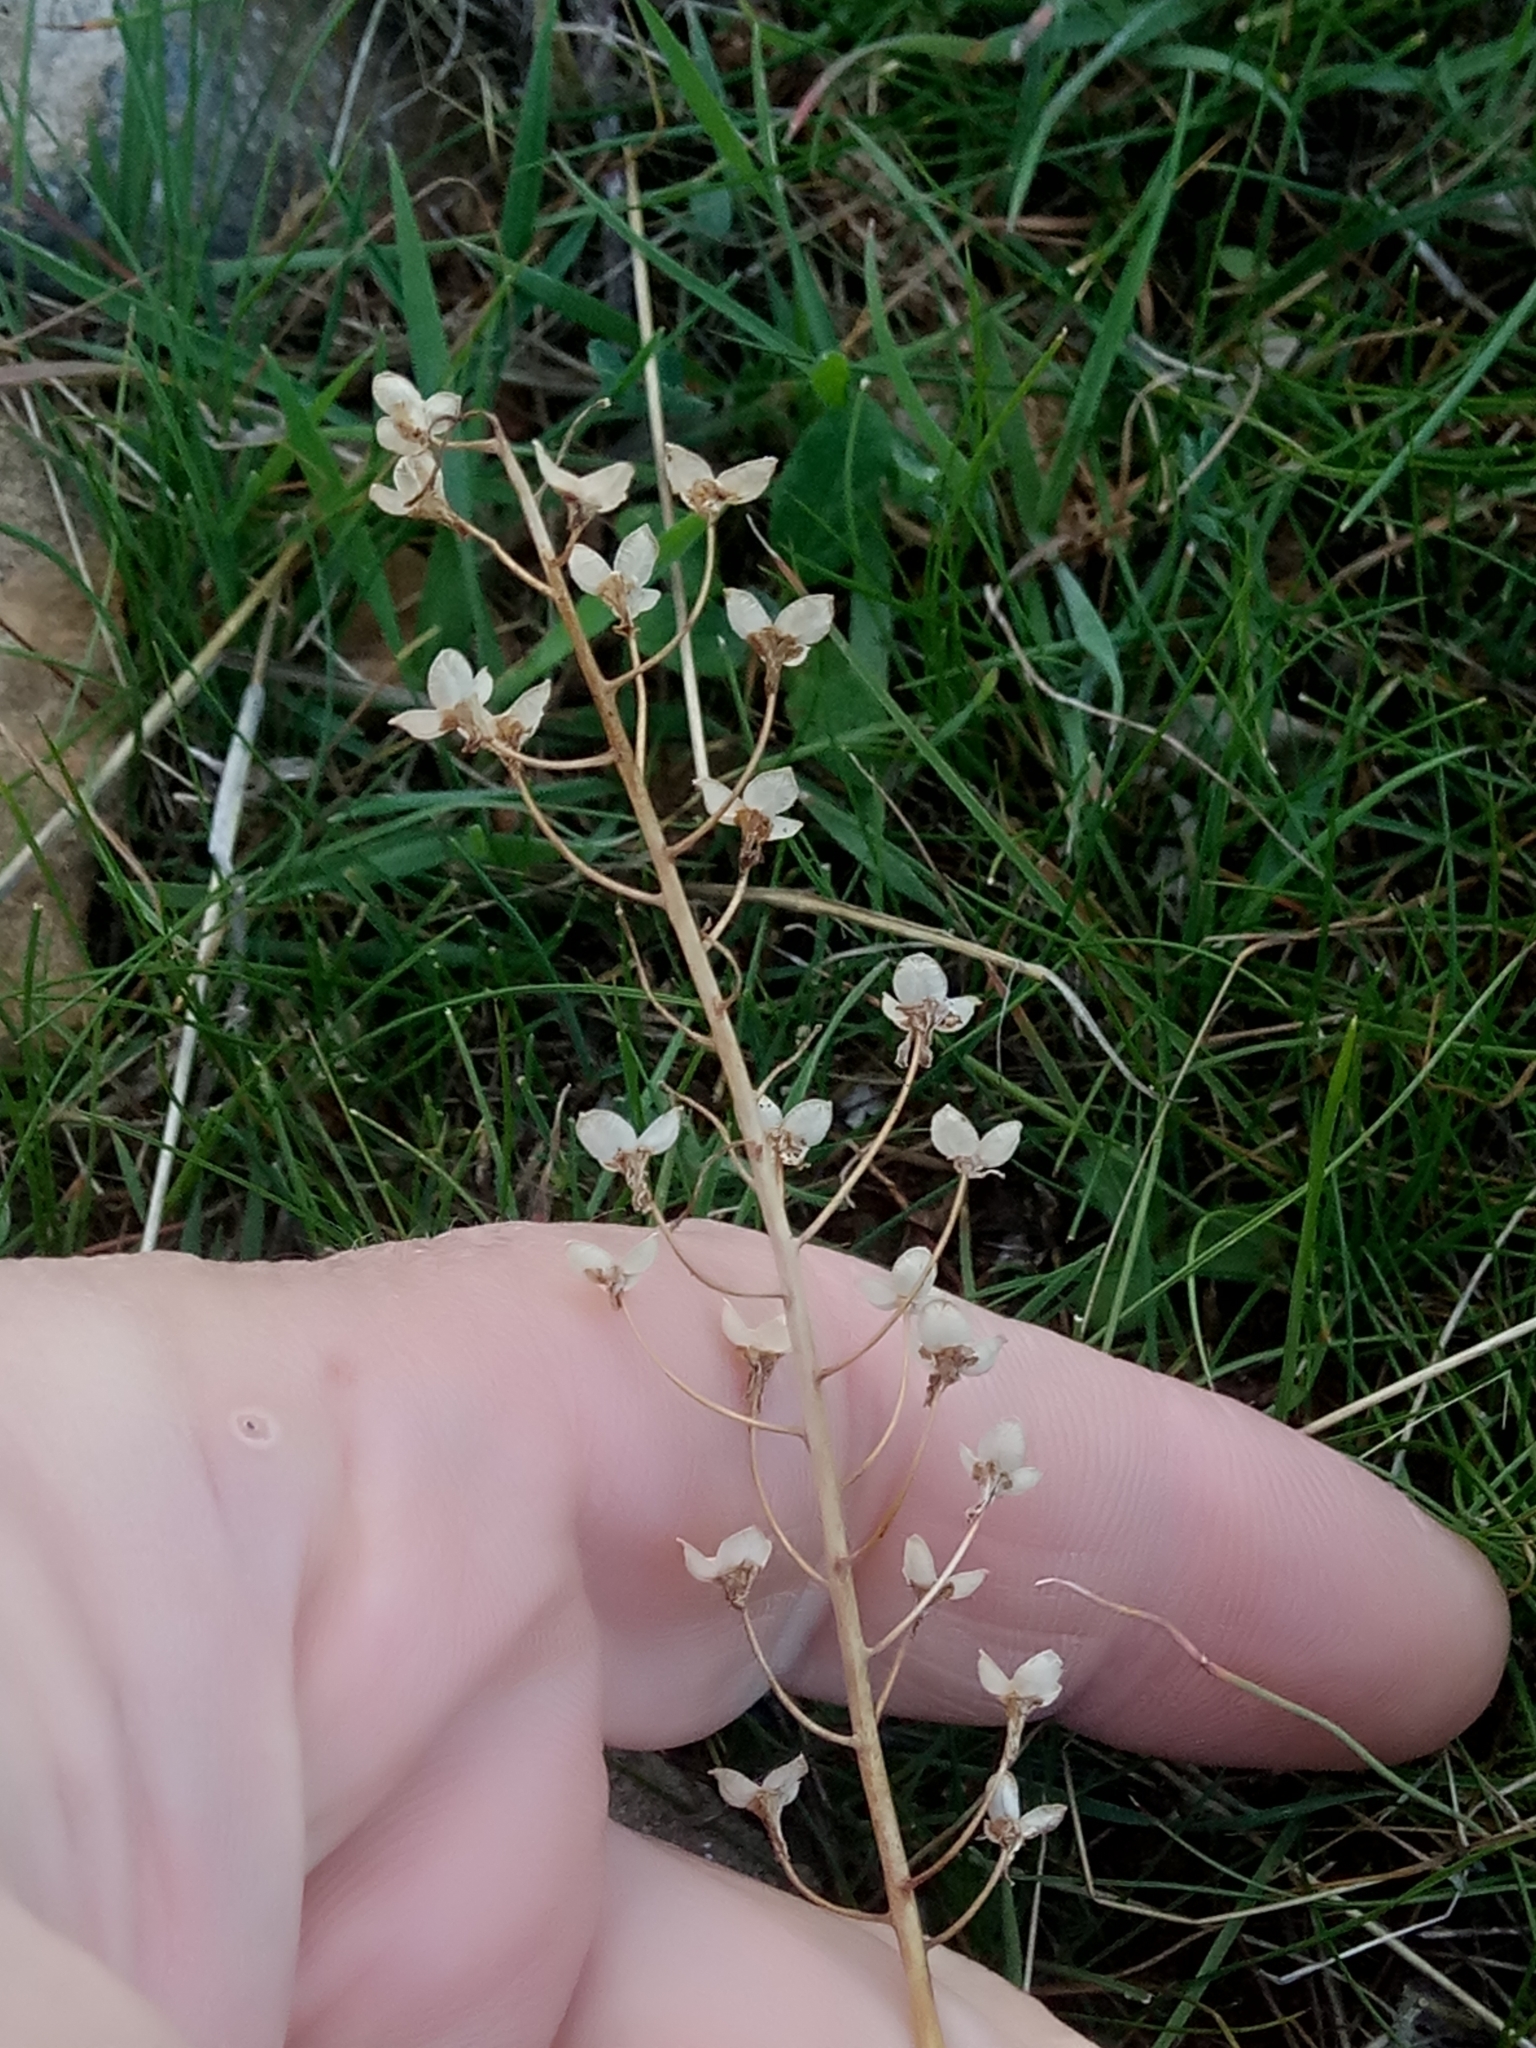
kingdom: Plantae
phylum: Tracheophyta
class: Liliopsida
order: Asparagales
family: Asparagaceae
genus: Prospero
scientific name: Prospero autumnale
